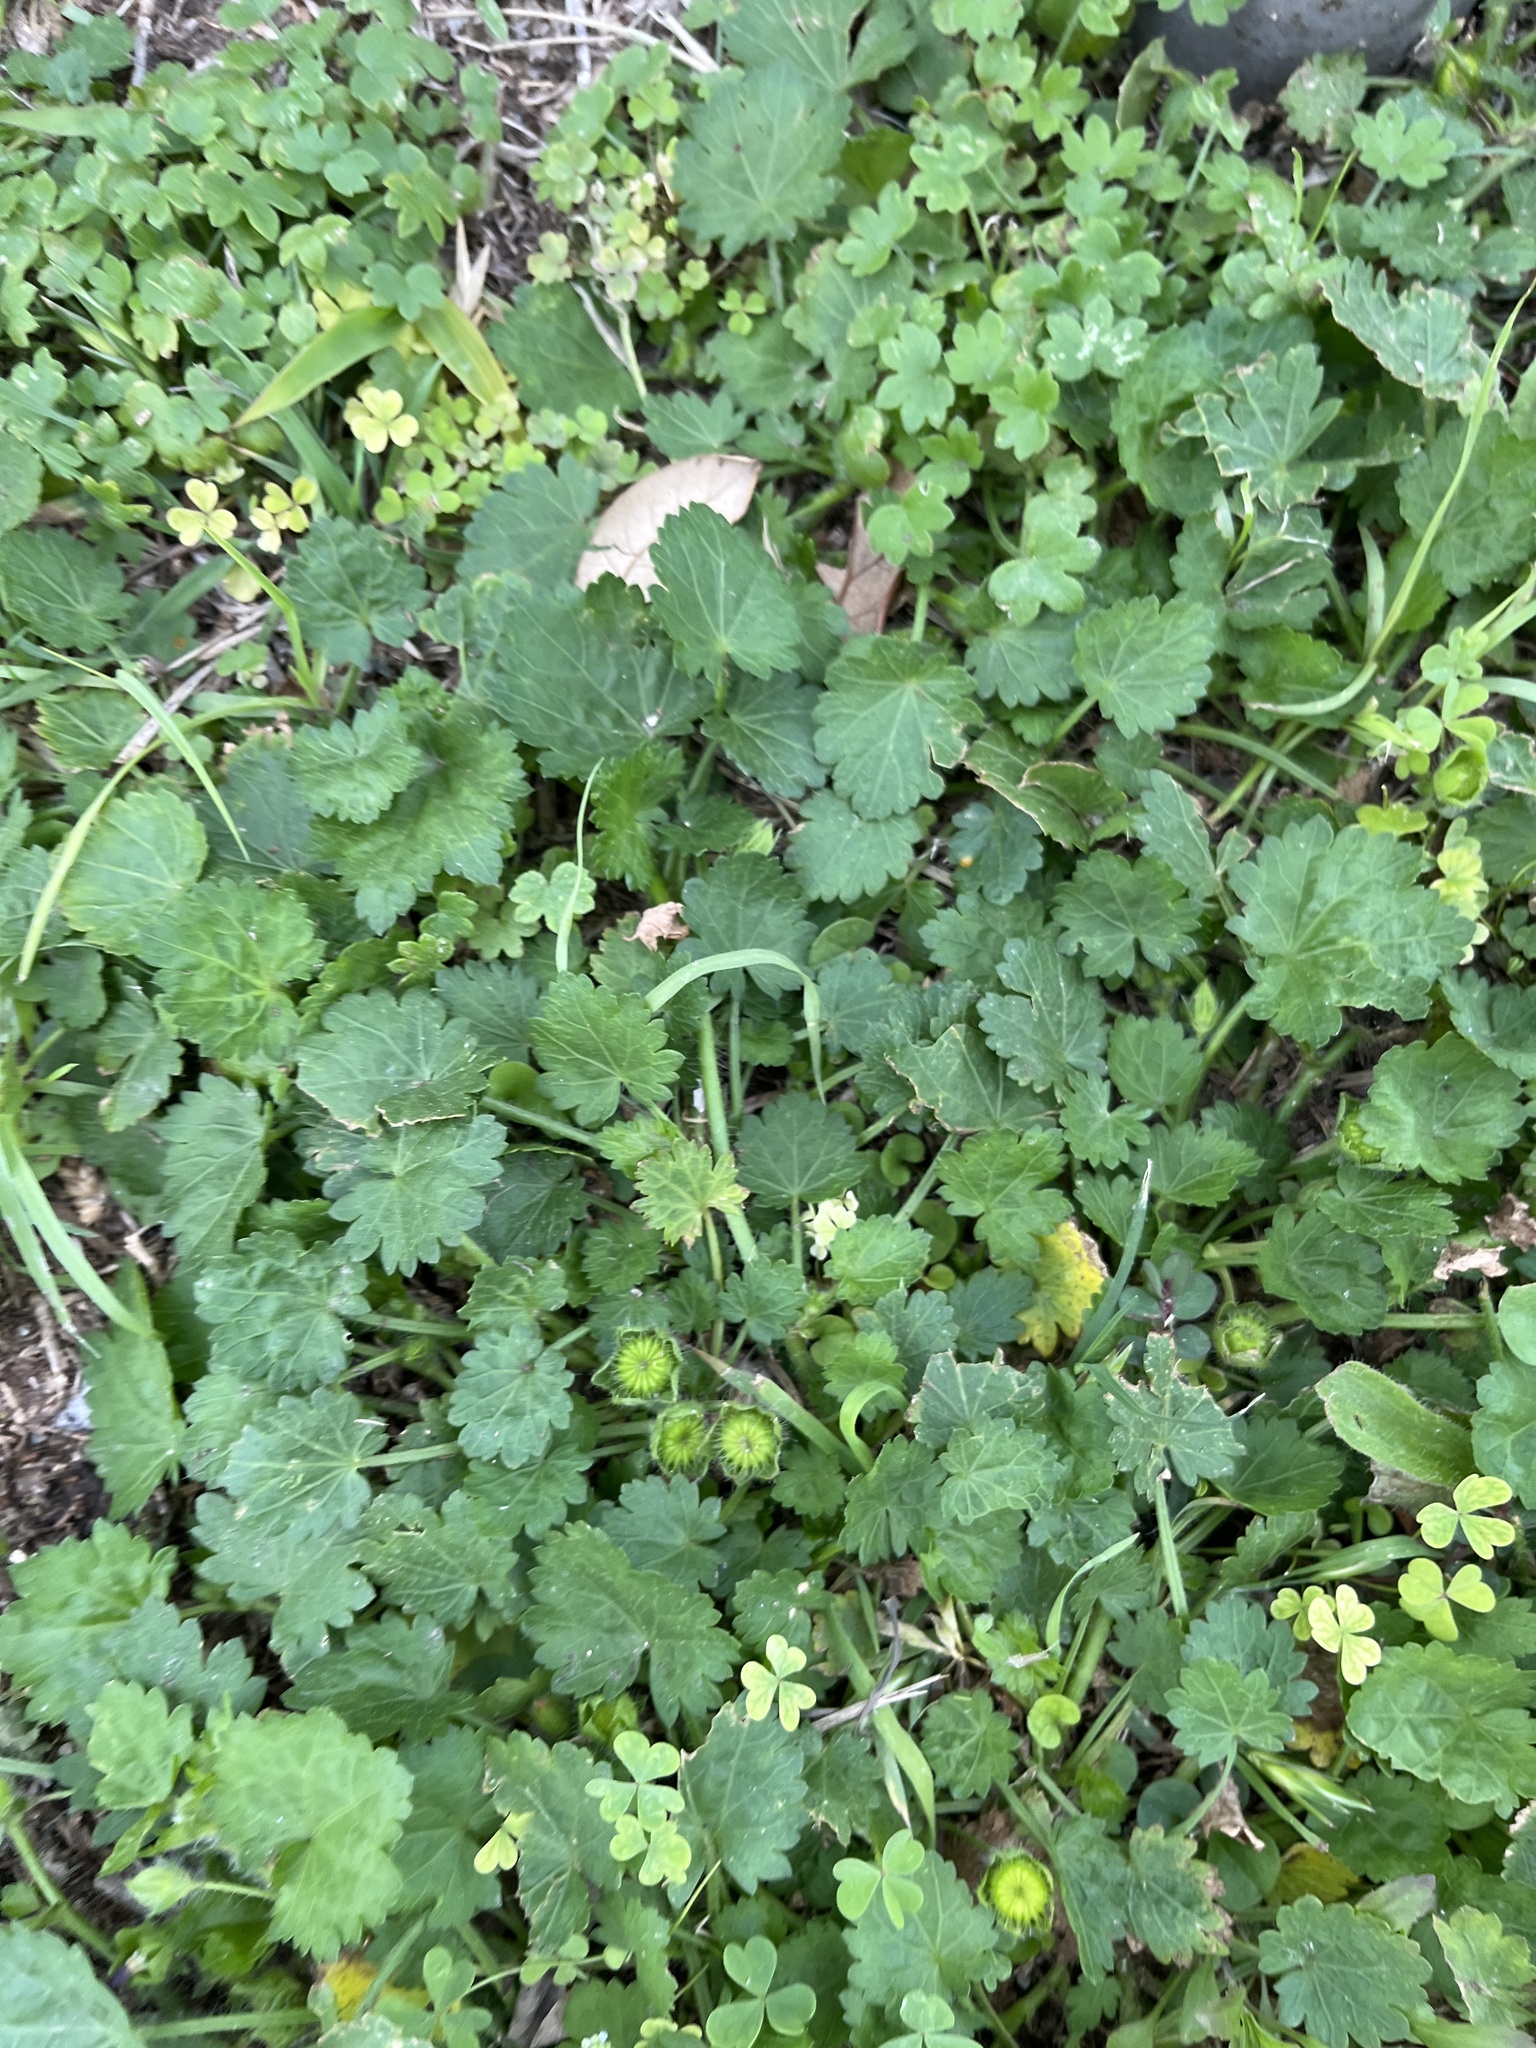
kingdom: Plantae
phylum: Tracheophyta
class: Magnoliopsida
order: Malvales
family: Malvaceae
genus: Modiola
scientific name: Modiola caroliniana
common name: Carolina bristlemallow
